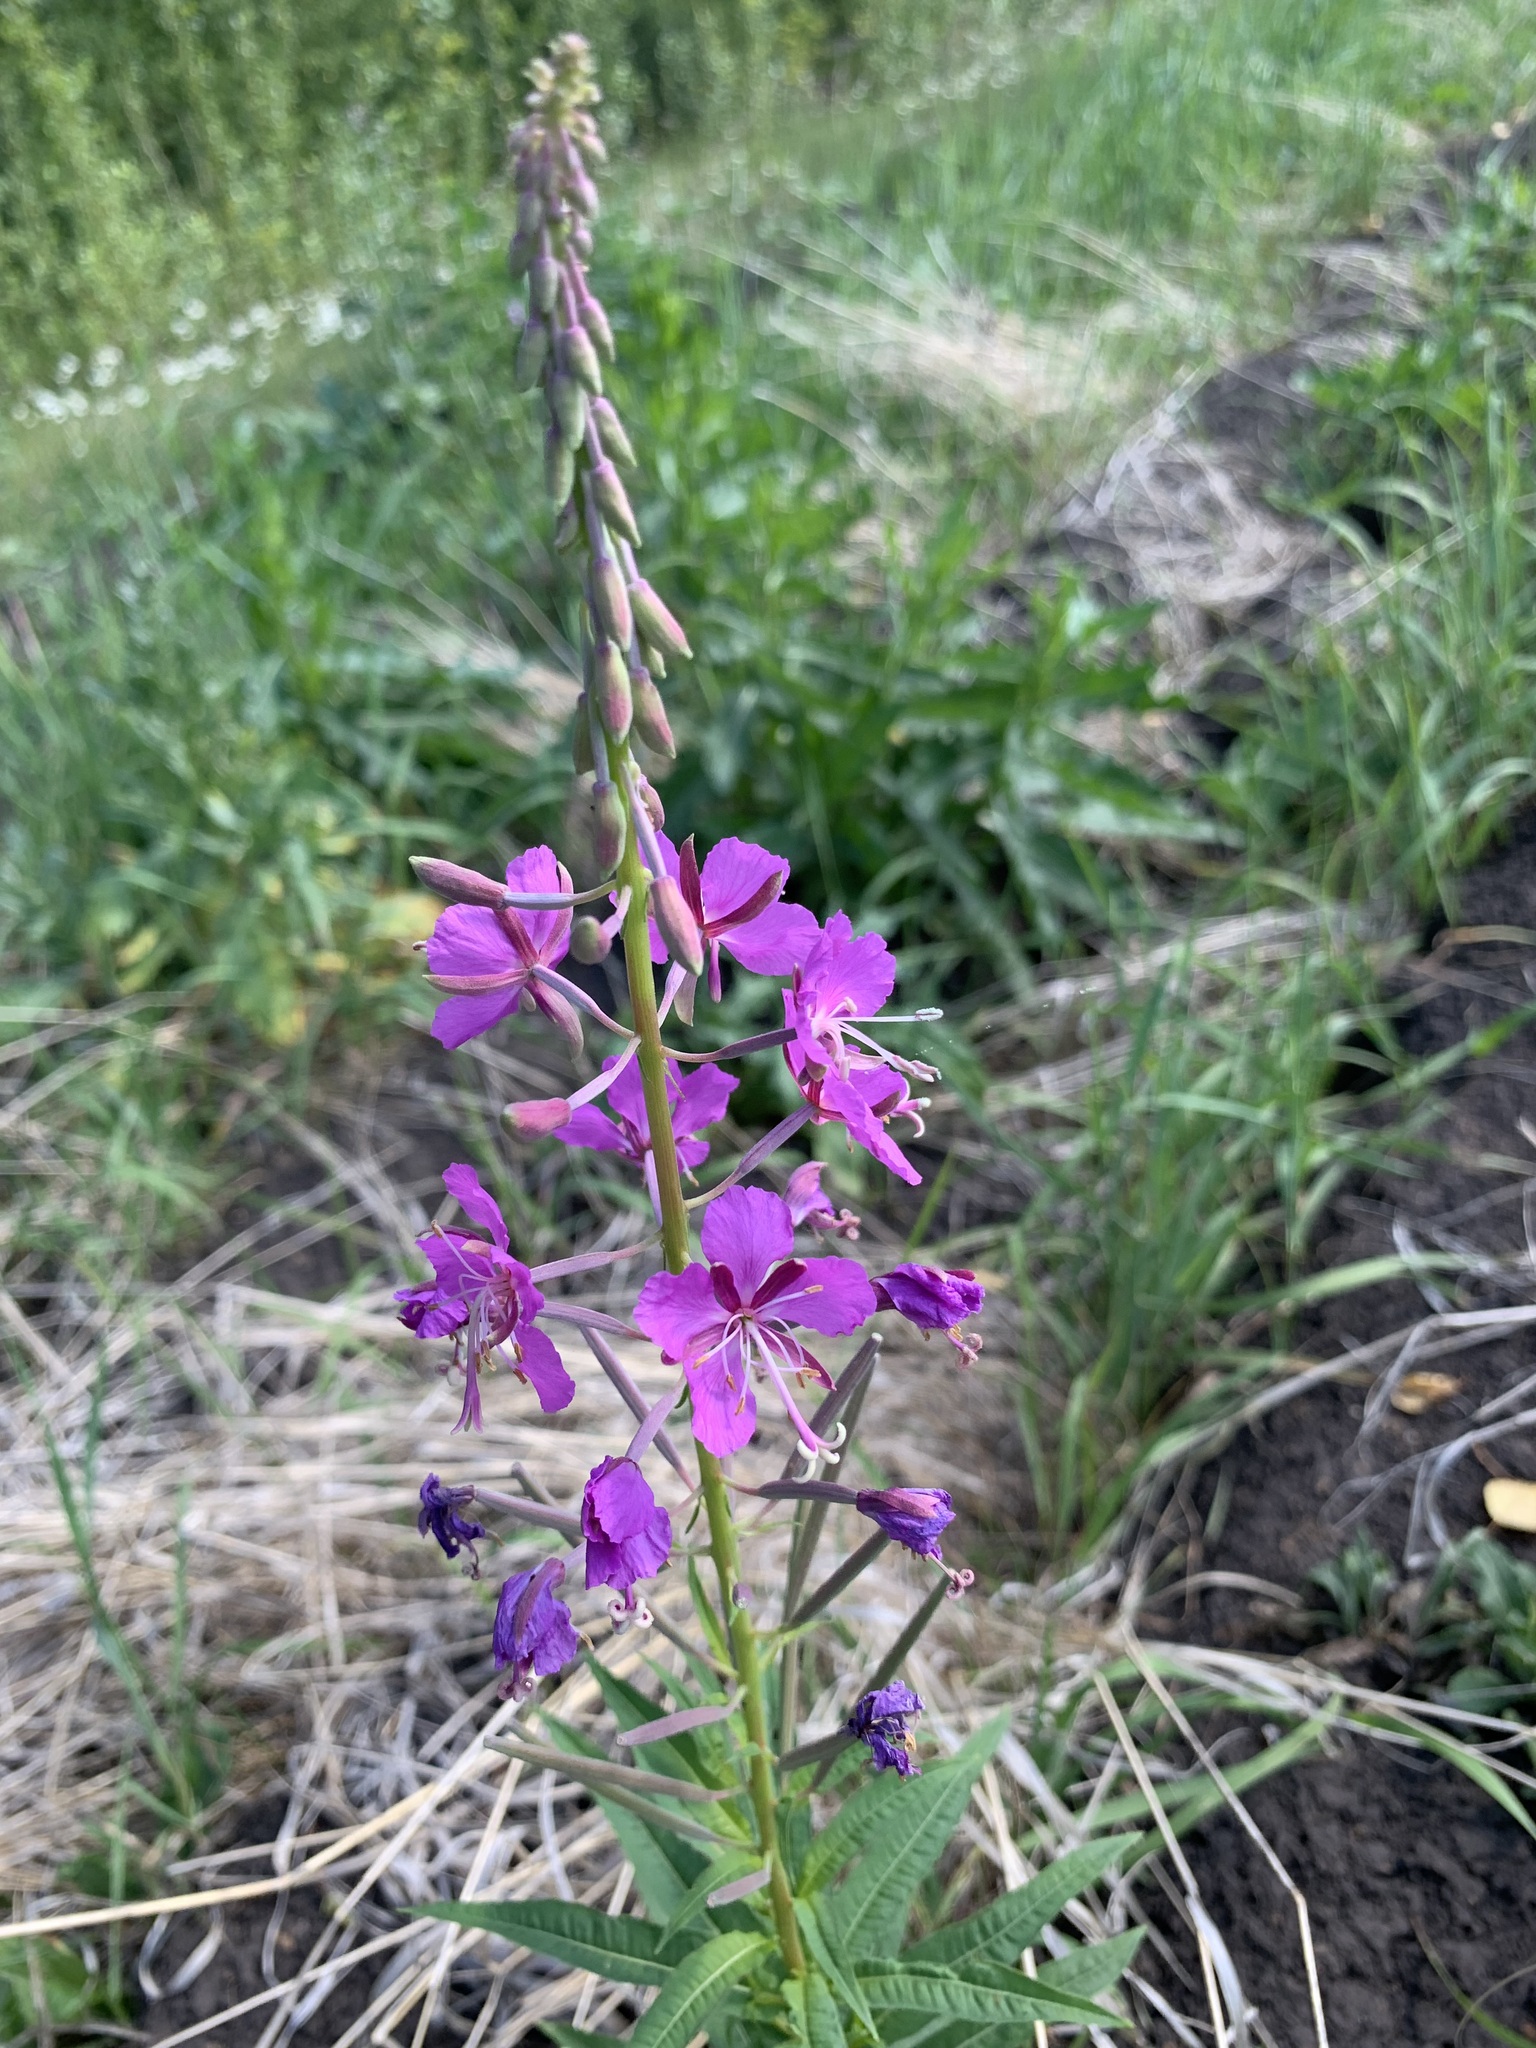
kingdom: Plantae
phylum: Tracheophyta
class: Magnoliopsida
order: Myrtales
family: Onagraceae
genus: Chamaenerion
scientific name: Chamaenerion angustifolium
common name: Fireweed
